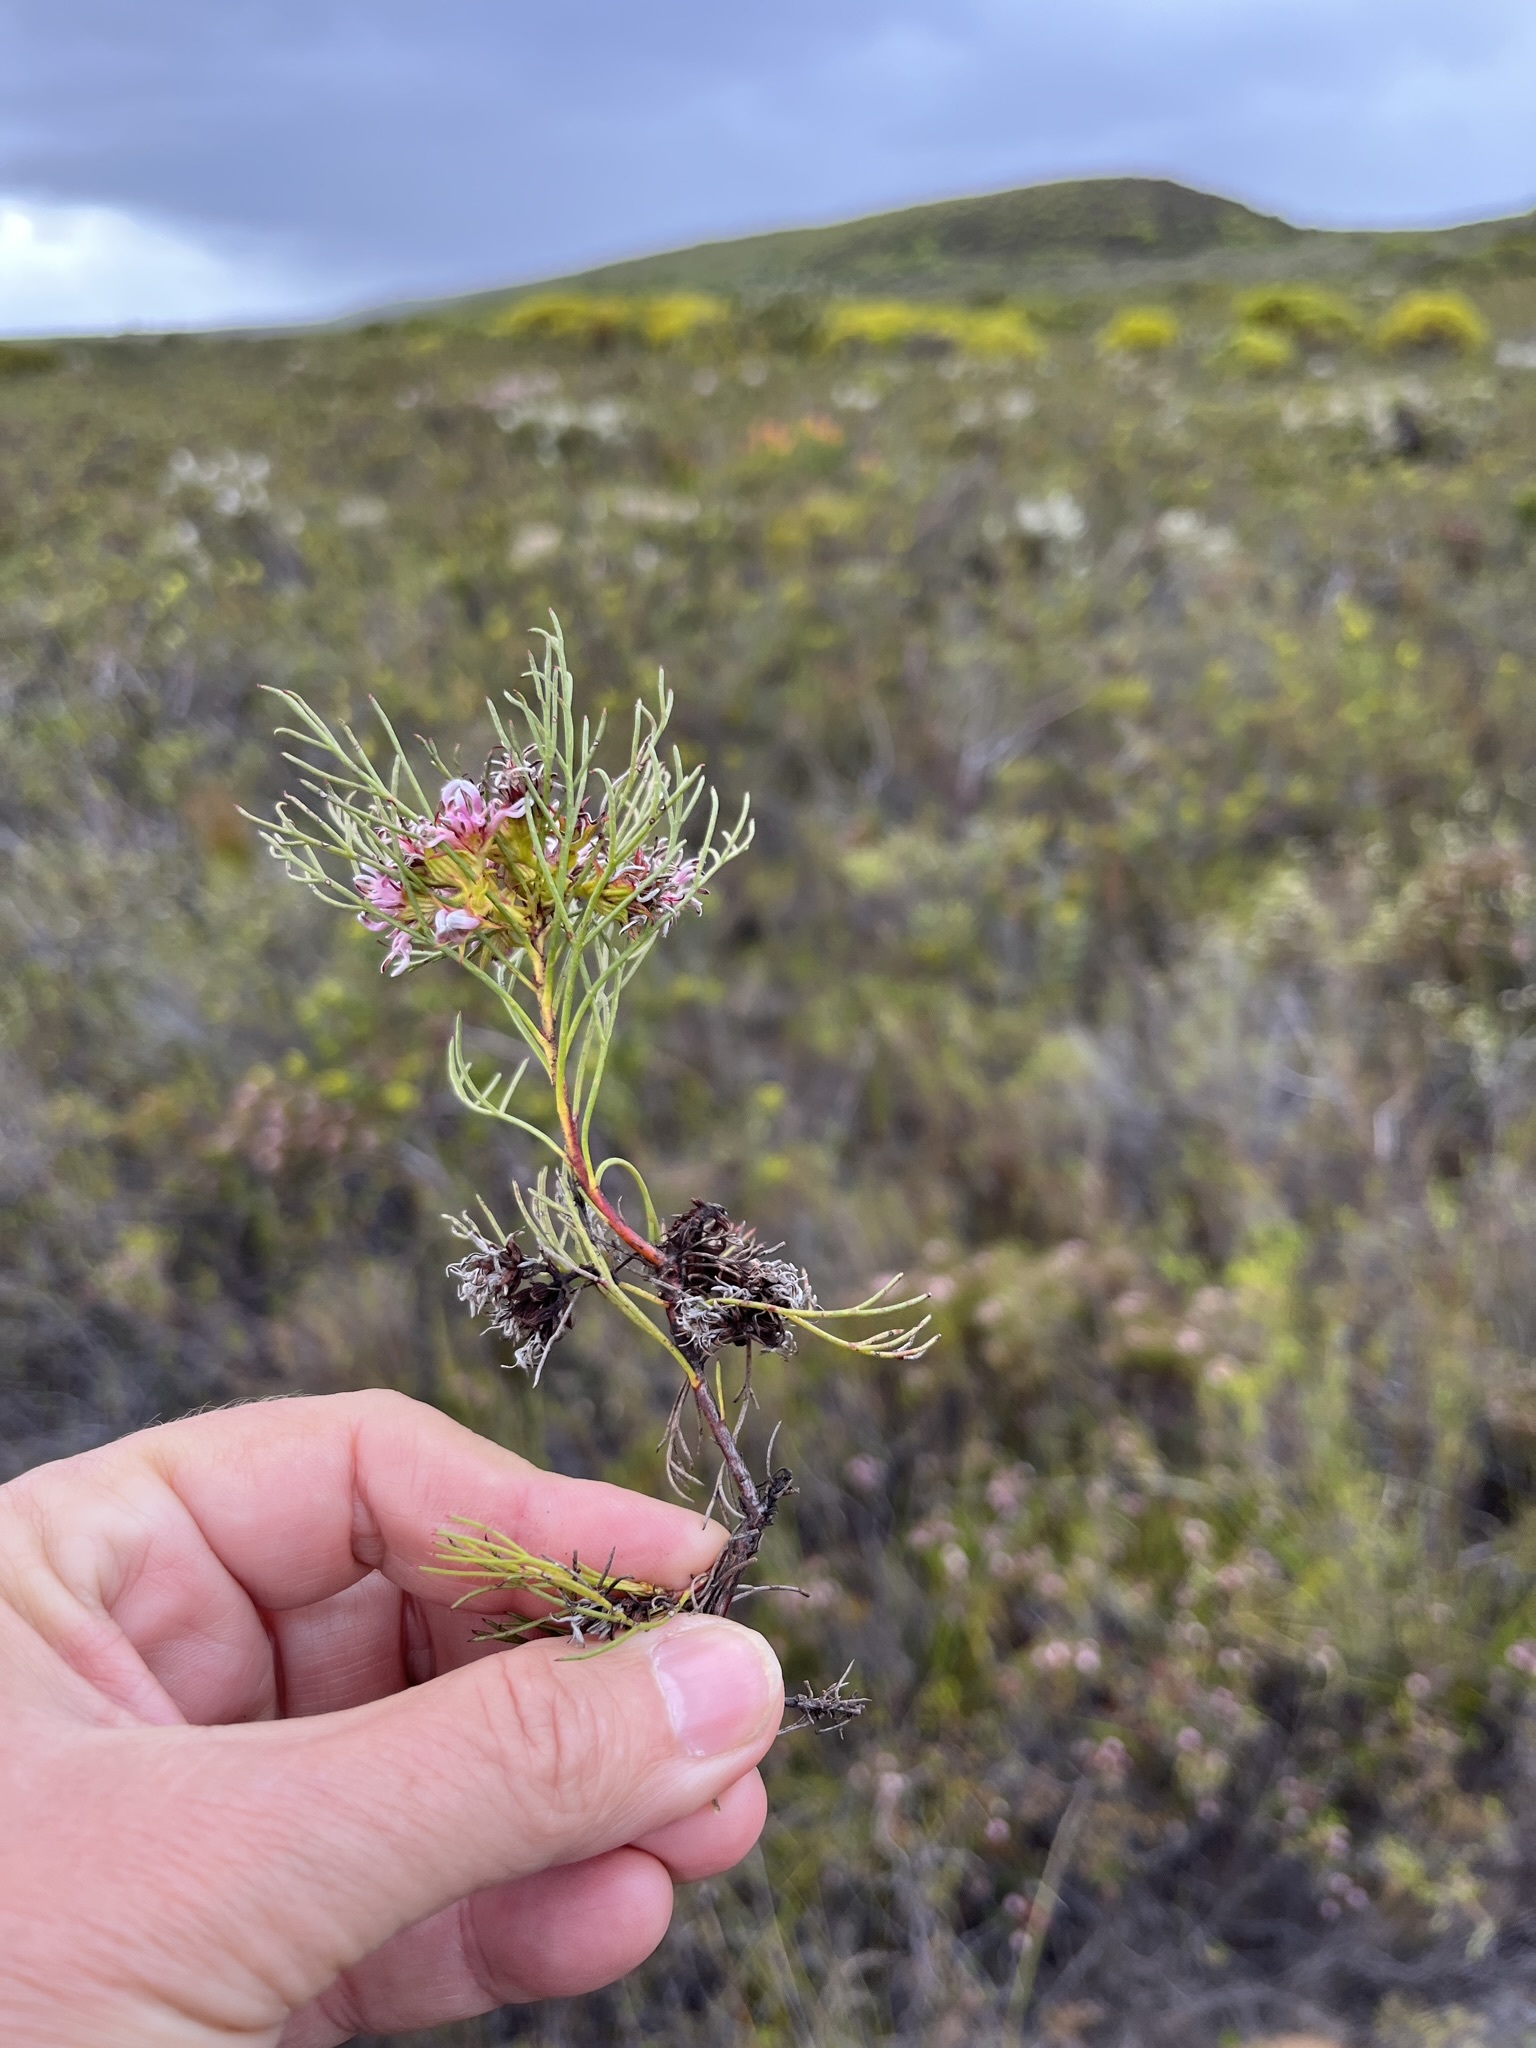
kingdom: Plantae
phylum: Tracheophyta
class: Magnoliopsida
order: Proteales
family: Proteaceae
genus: Serruria
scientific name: Serruria bolusii
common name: Agulhas spiderhead
